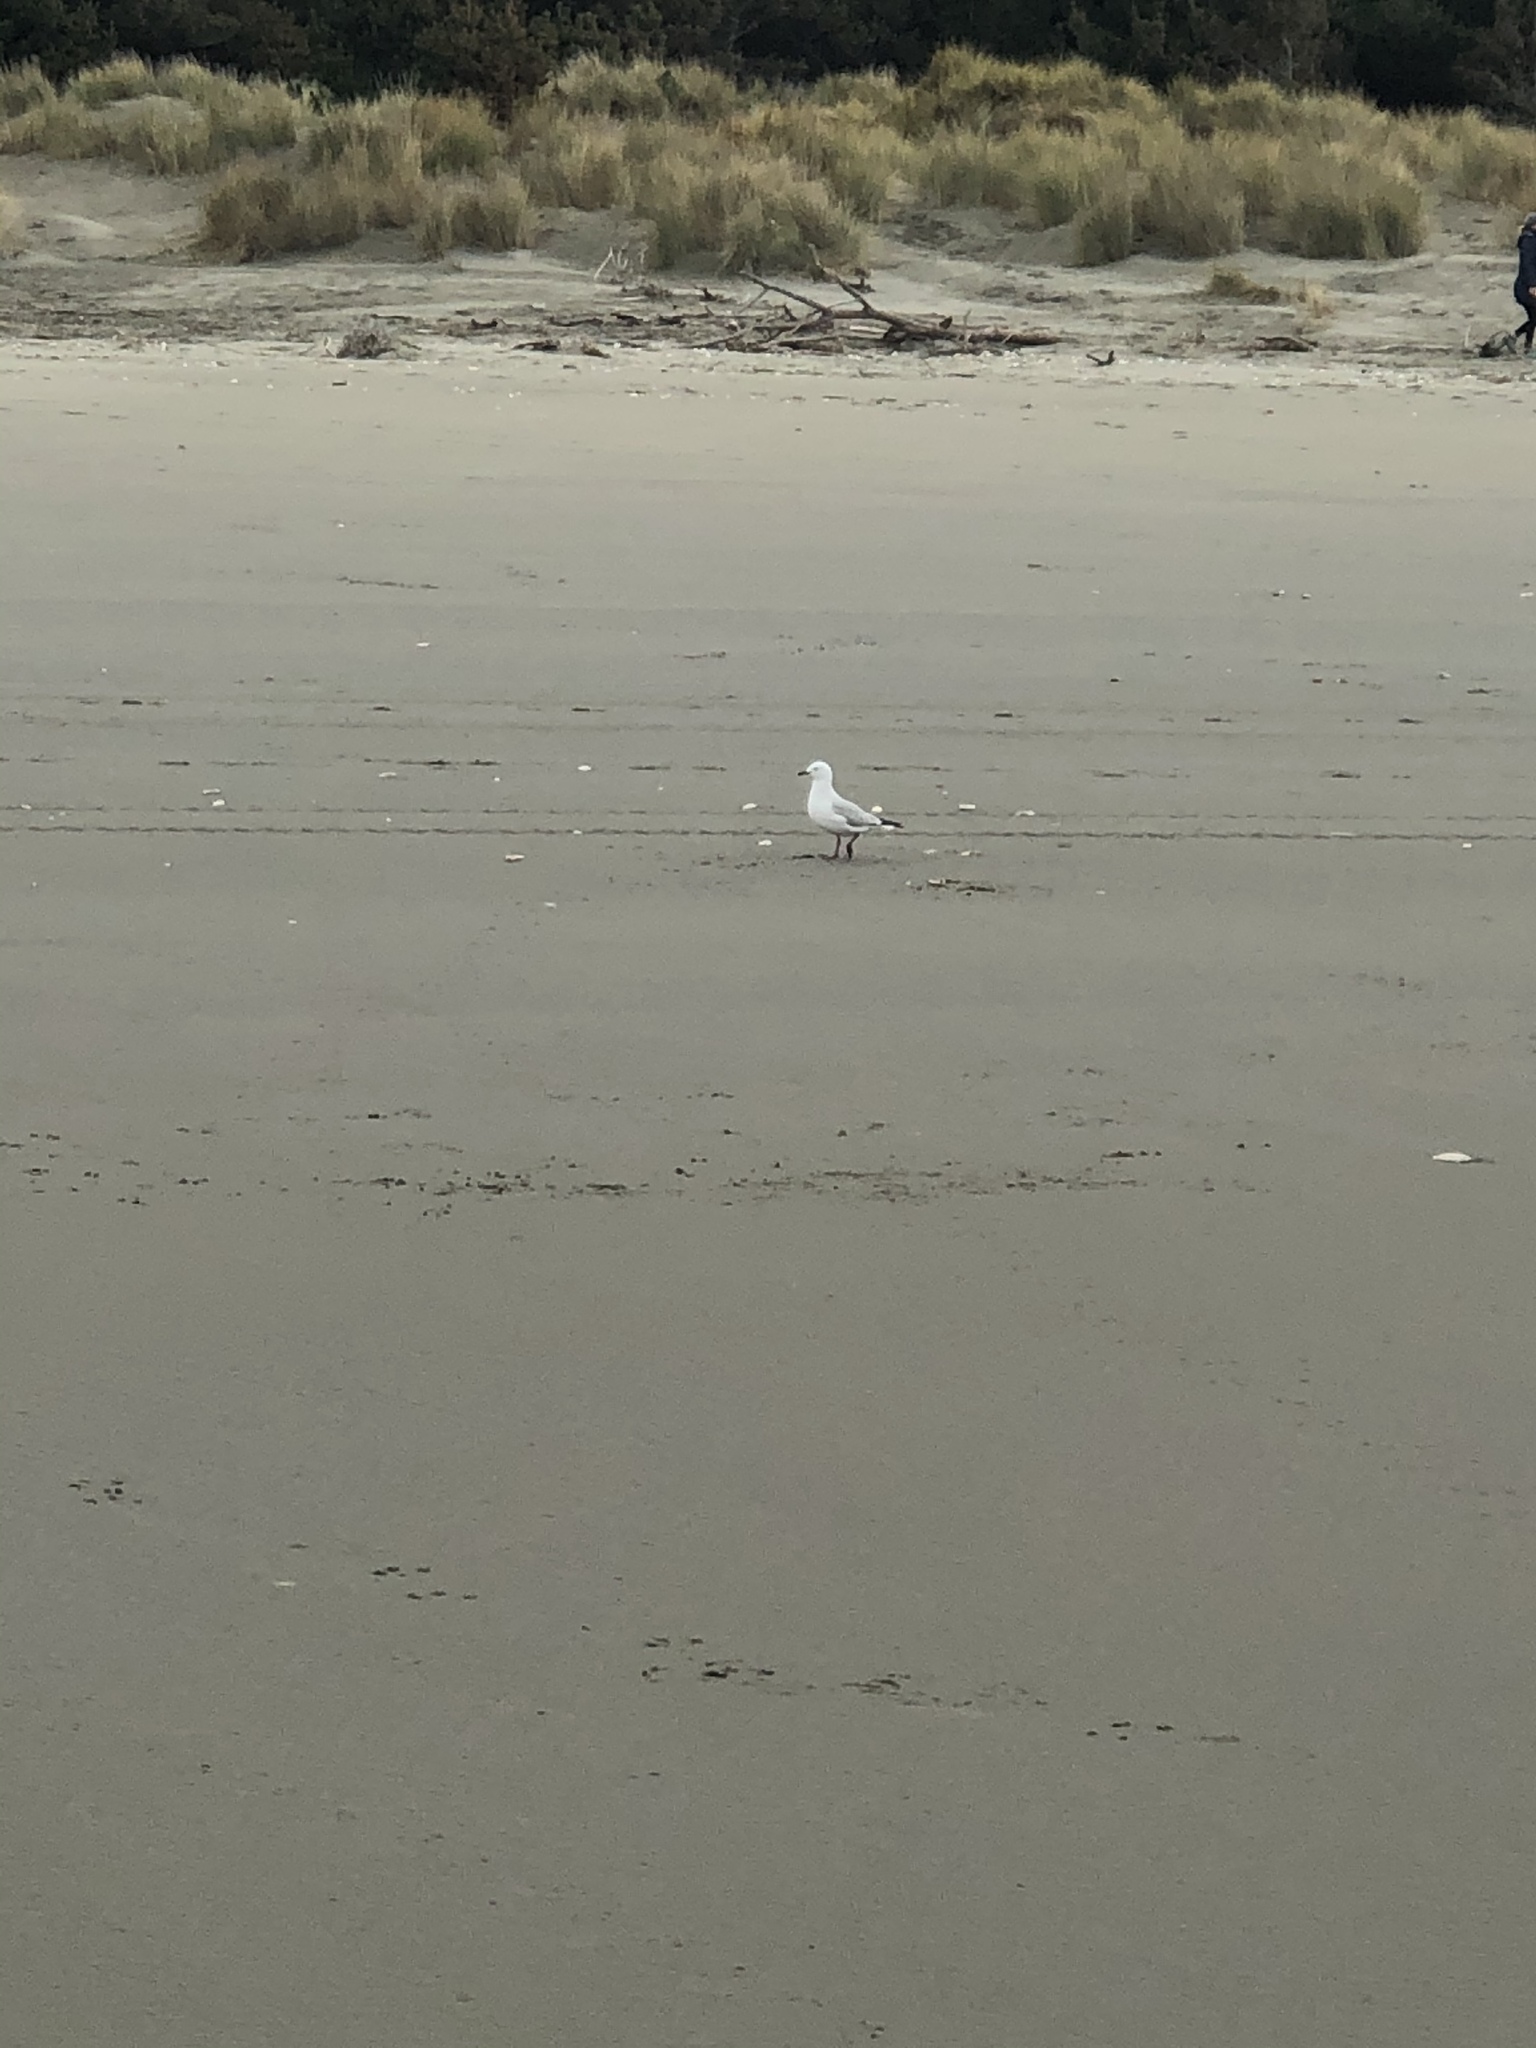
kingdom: Animalia
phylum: Chordata
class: Aves
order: Charadriiformes
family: Laridae
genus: Chroicocephalus
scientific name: Chroicocephalus novaehollandiae
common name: Silver gull
